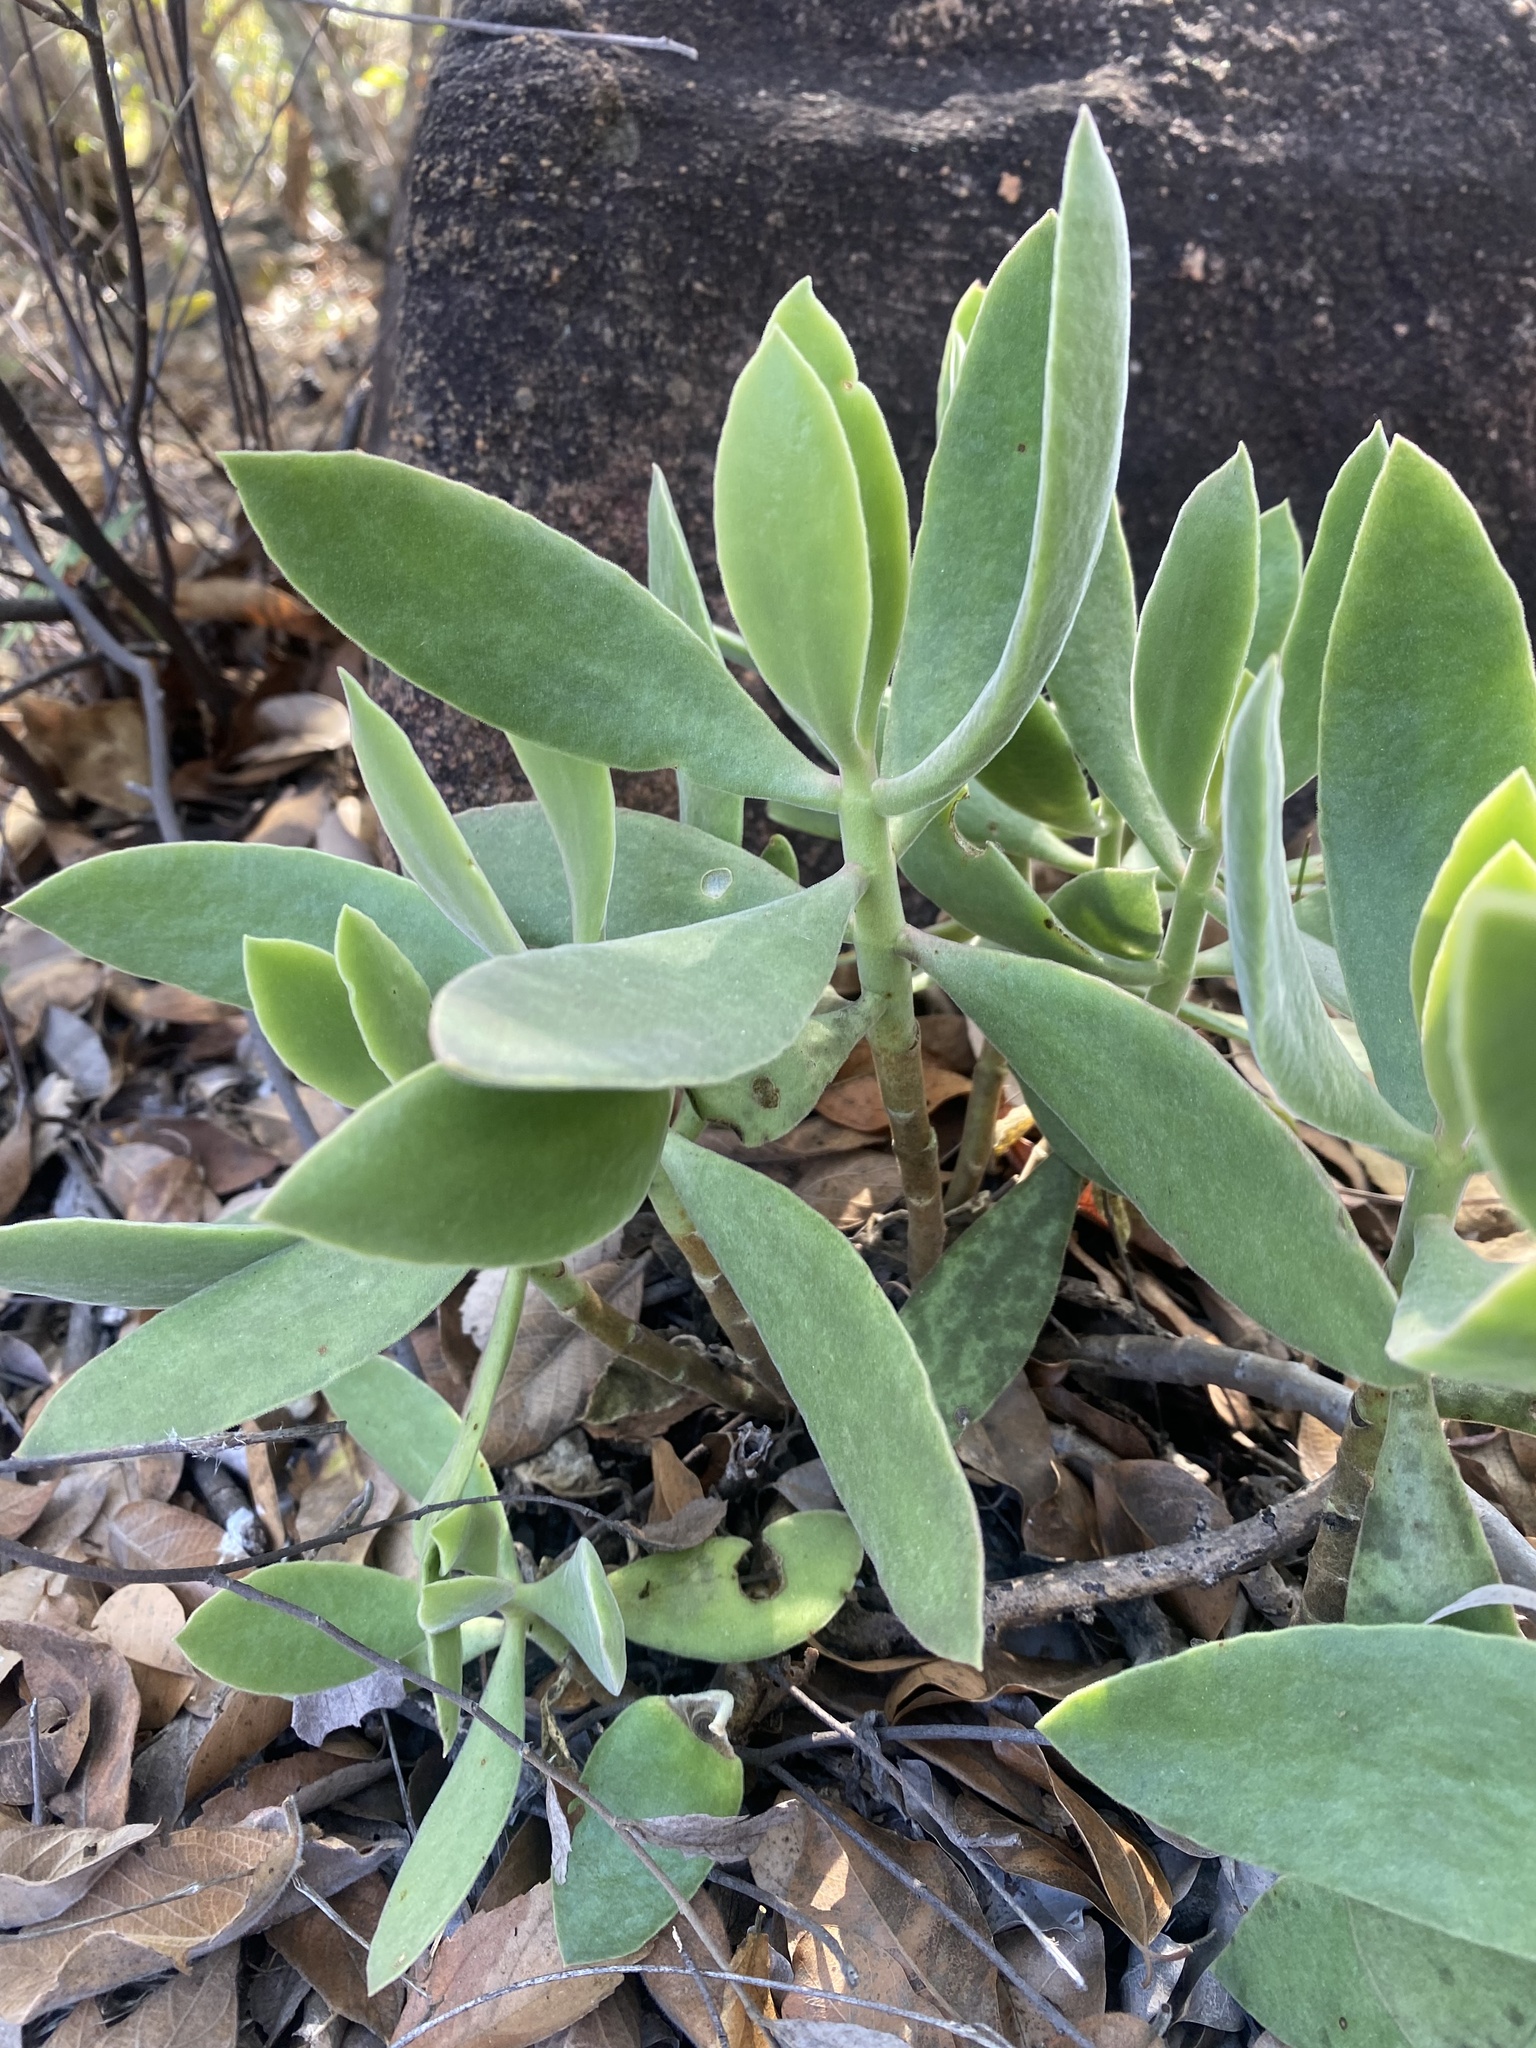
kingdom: Plantae
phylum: Tracheophyta
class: Magnoliopsida
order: Saxifragales
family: Crassulaceae
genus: Cotyledon
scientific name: Cotyledon barbeyi
